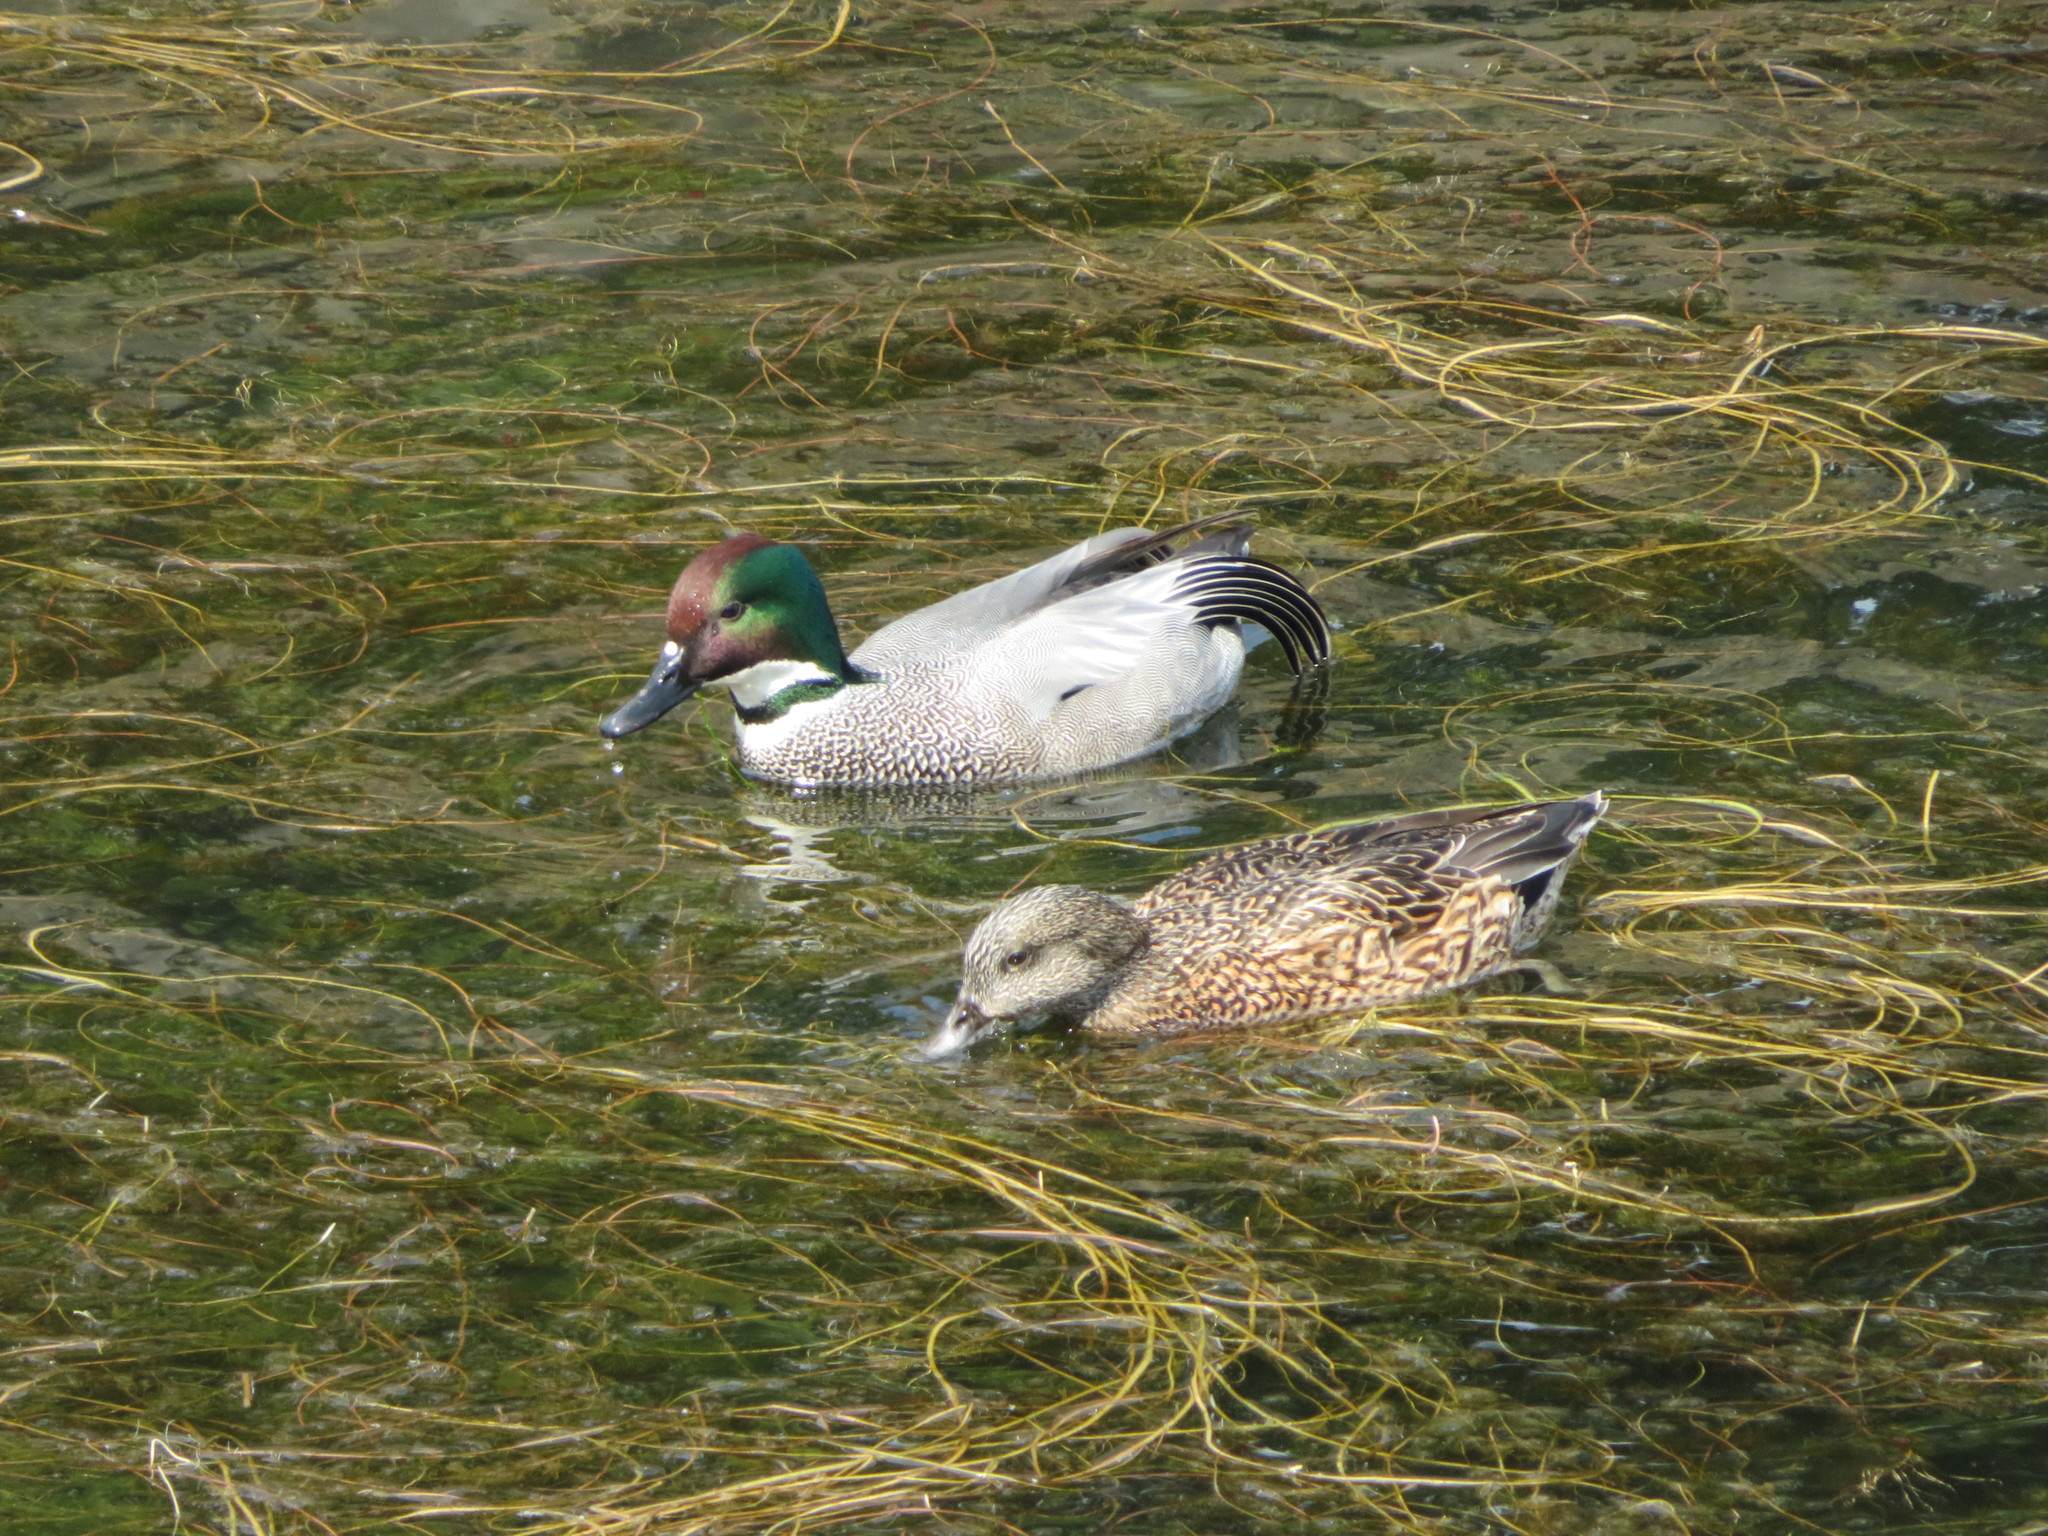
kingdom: Animalia
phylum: Chordata
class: Aves
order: Anseriformes
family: Anatidae
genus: Mareca
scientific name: Mareca falcata
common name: Falcated duck
